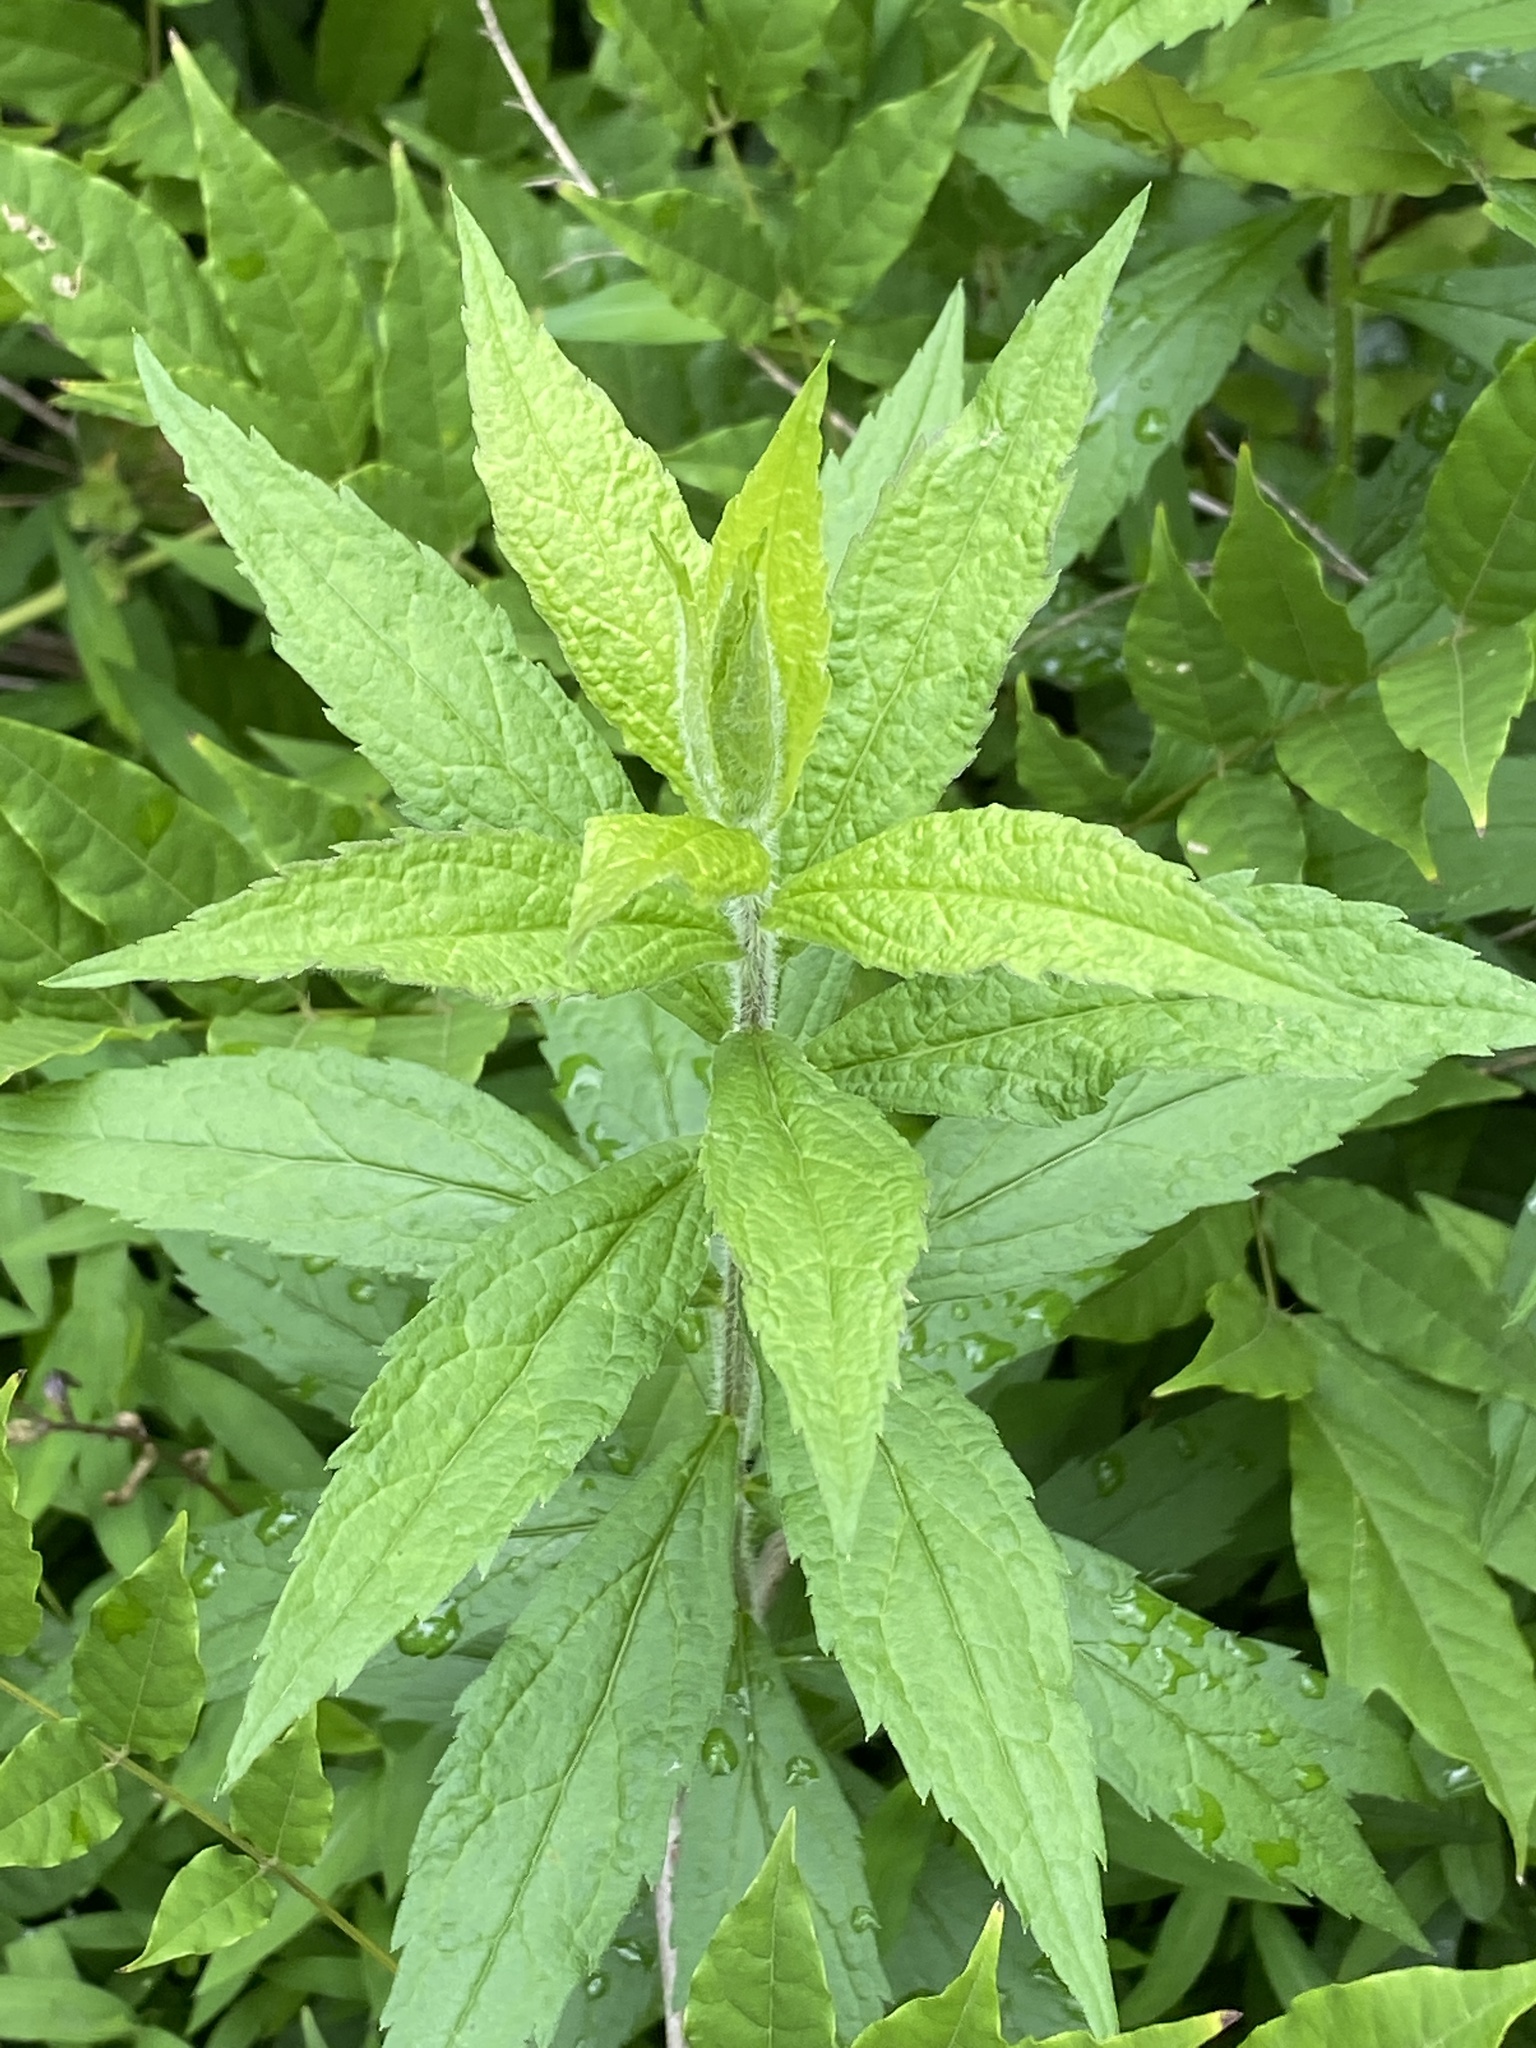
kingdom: Plantae
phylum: Tracheophyta
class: Magnoliopsida
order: Asterales
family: Asteraceae
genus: Solidago
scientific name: Solidago rugosa
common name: Rough-stemmed goldenrod
